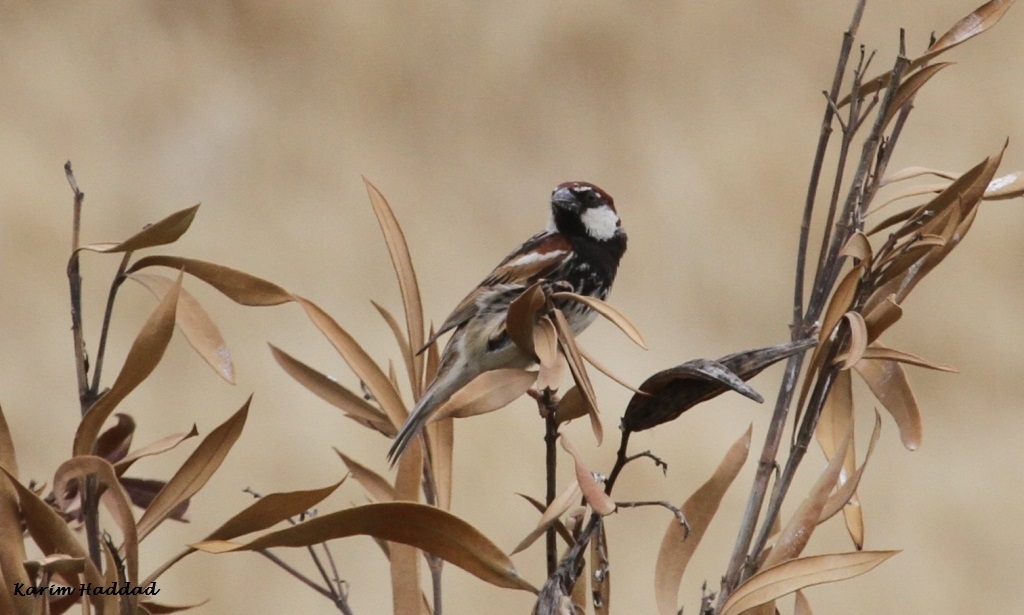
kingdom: Animalia
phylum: Chordata
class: Aves
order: Passeriformes
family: Passeridae
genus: Passer
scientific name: Passer hispaniolensis
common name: Spanish sparrow
